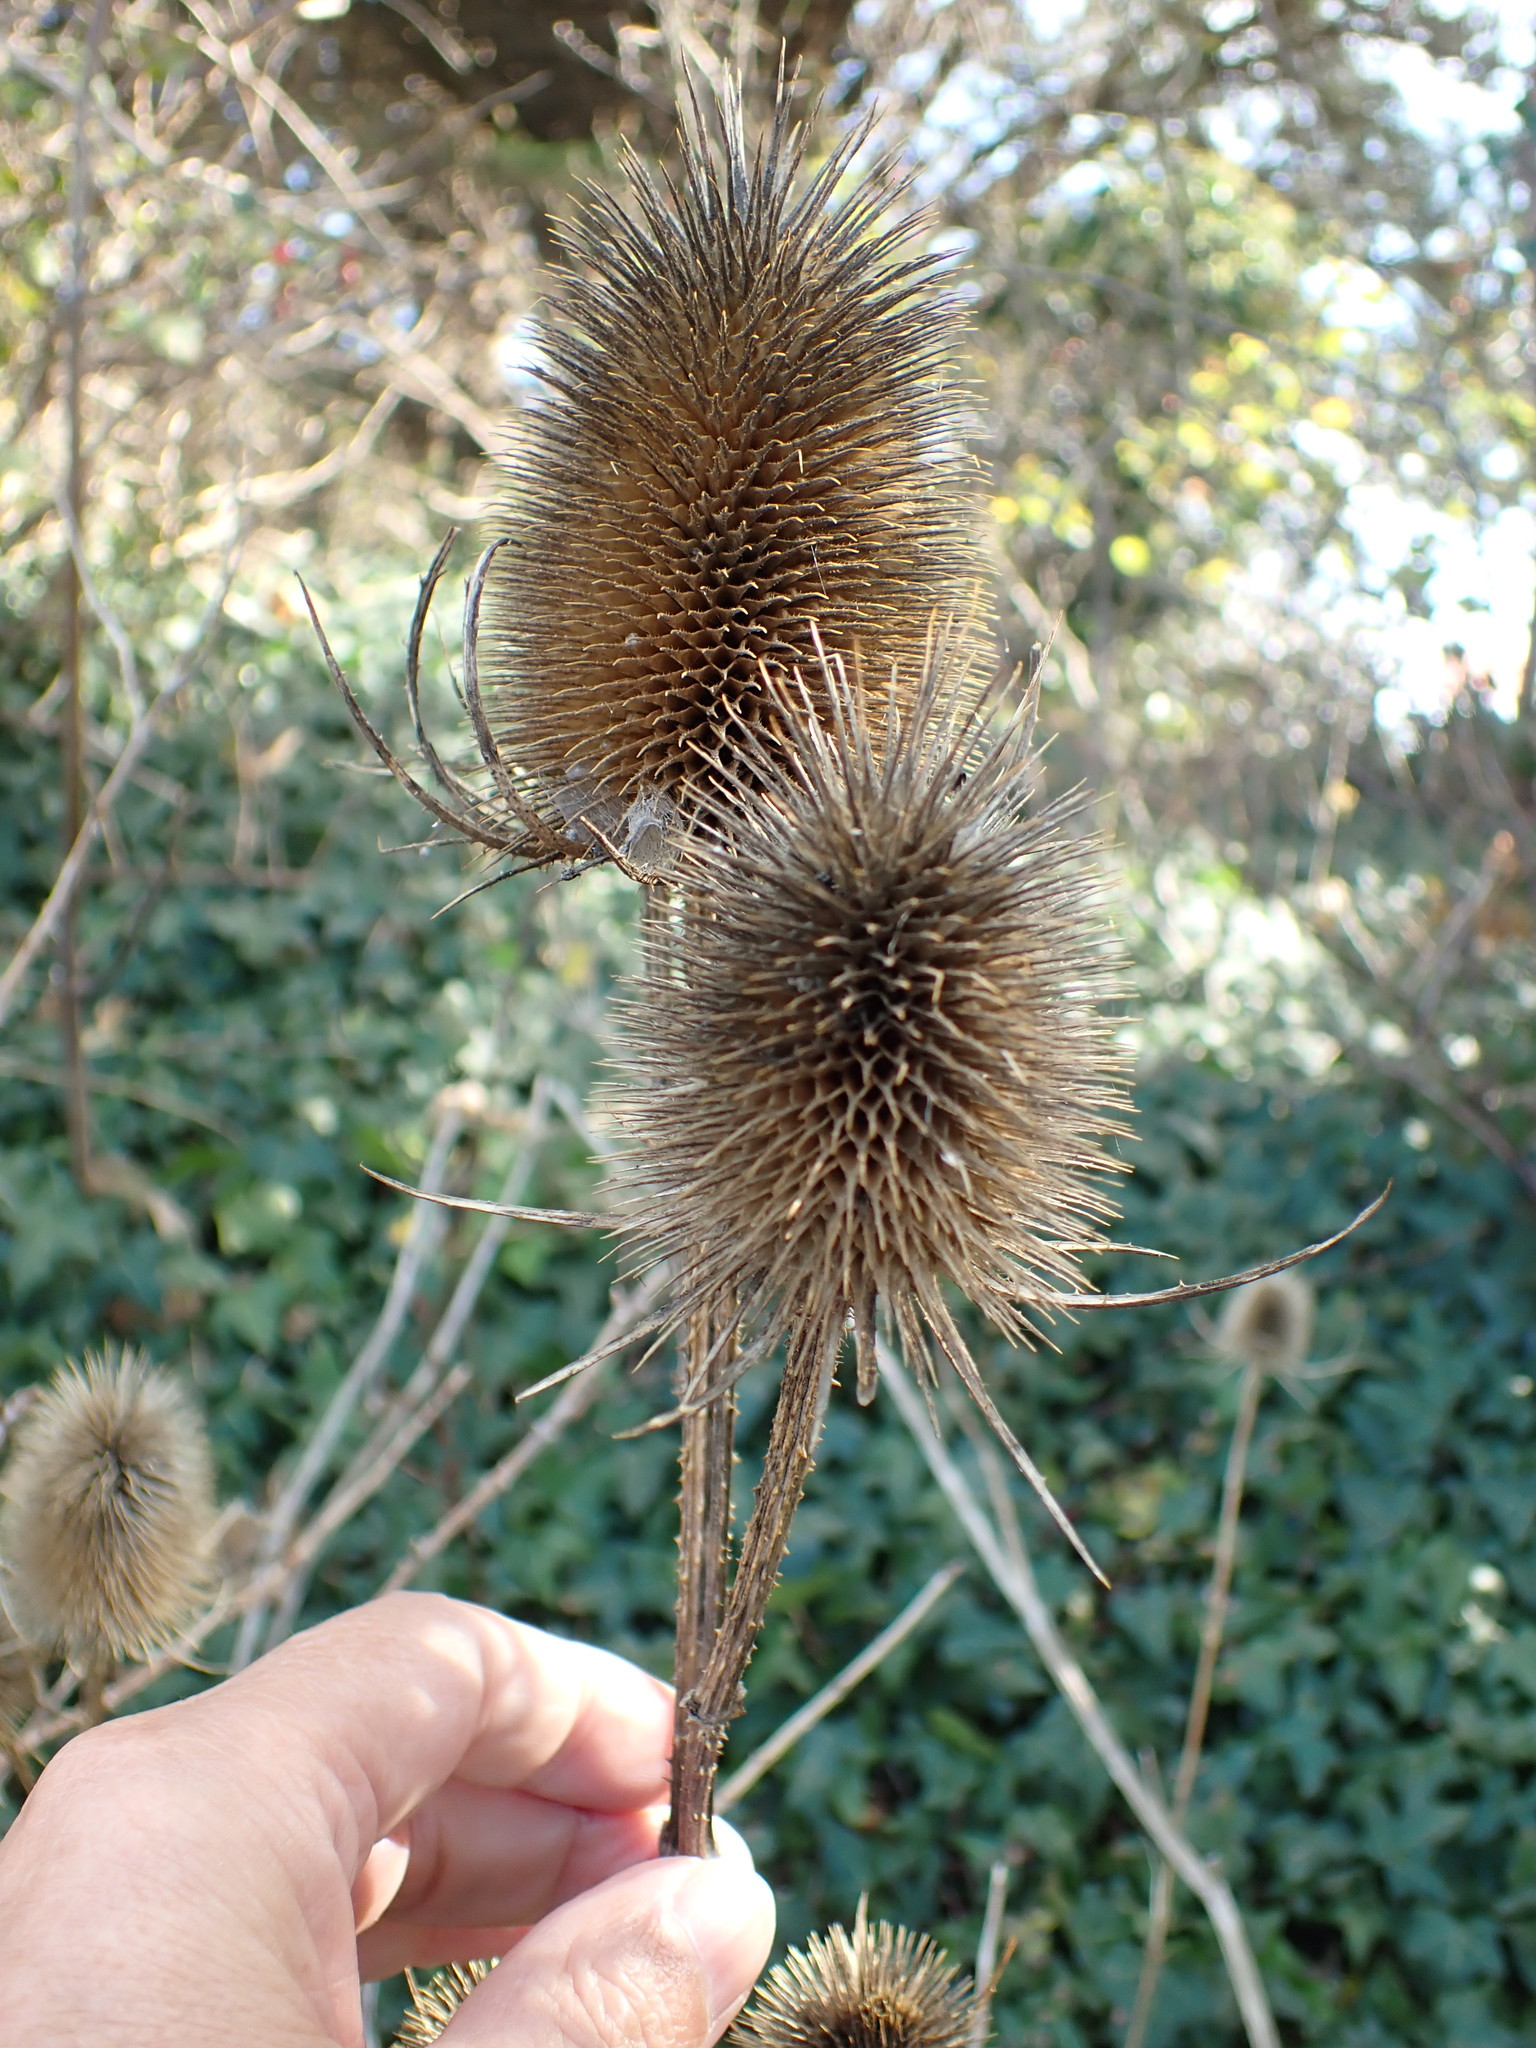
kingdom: Plantae
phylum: Tracheophyta
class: Magnoliopsida
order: Dipsacales
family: Caprifoliaceae
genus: Dipsacus
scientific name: Dipsacus fullonum
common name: Teasel
